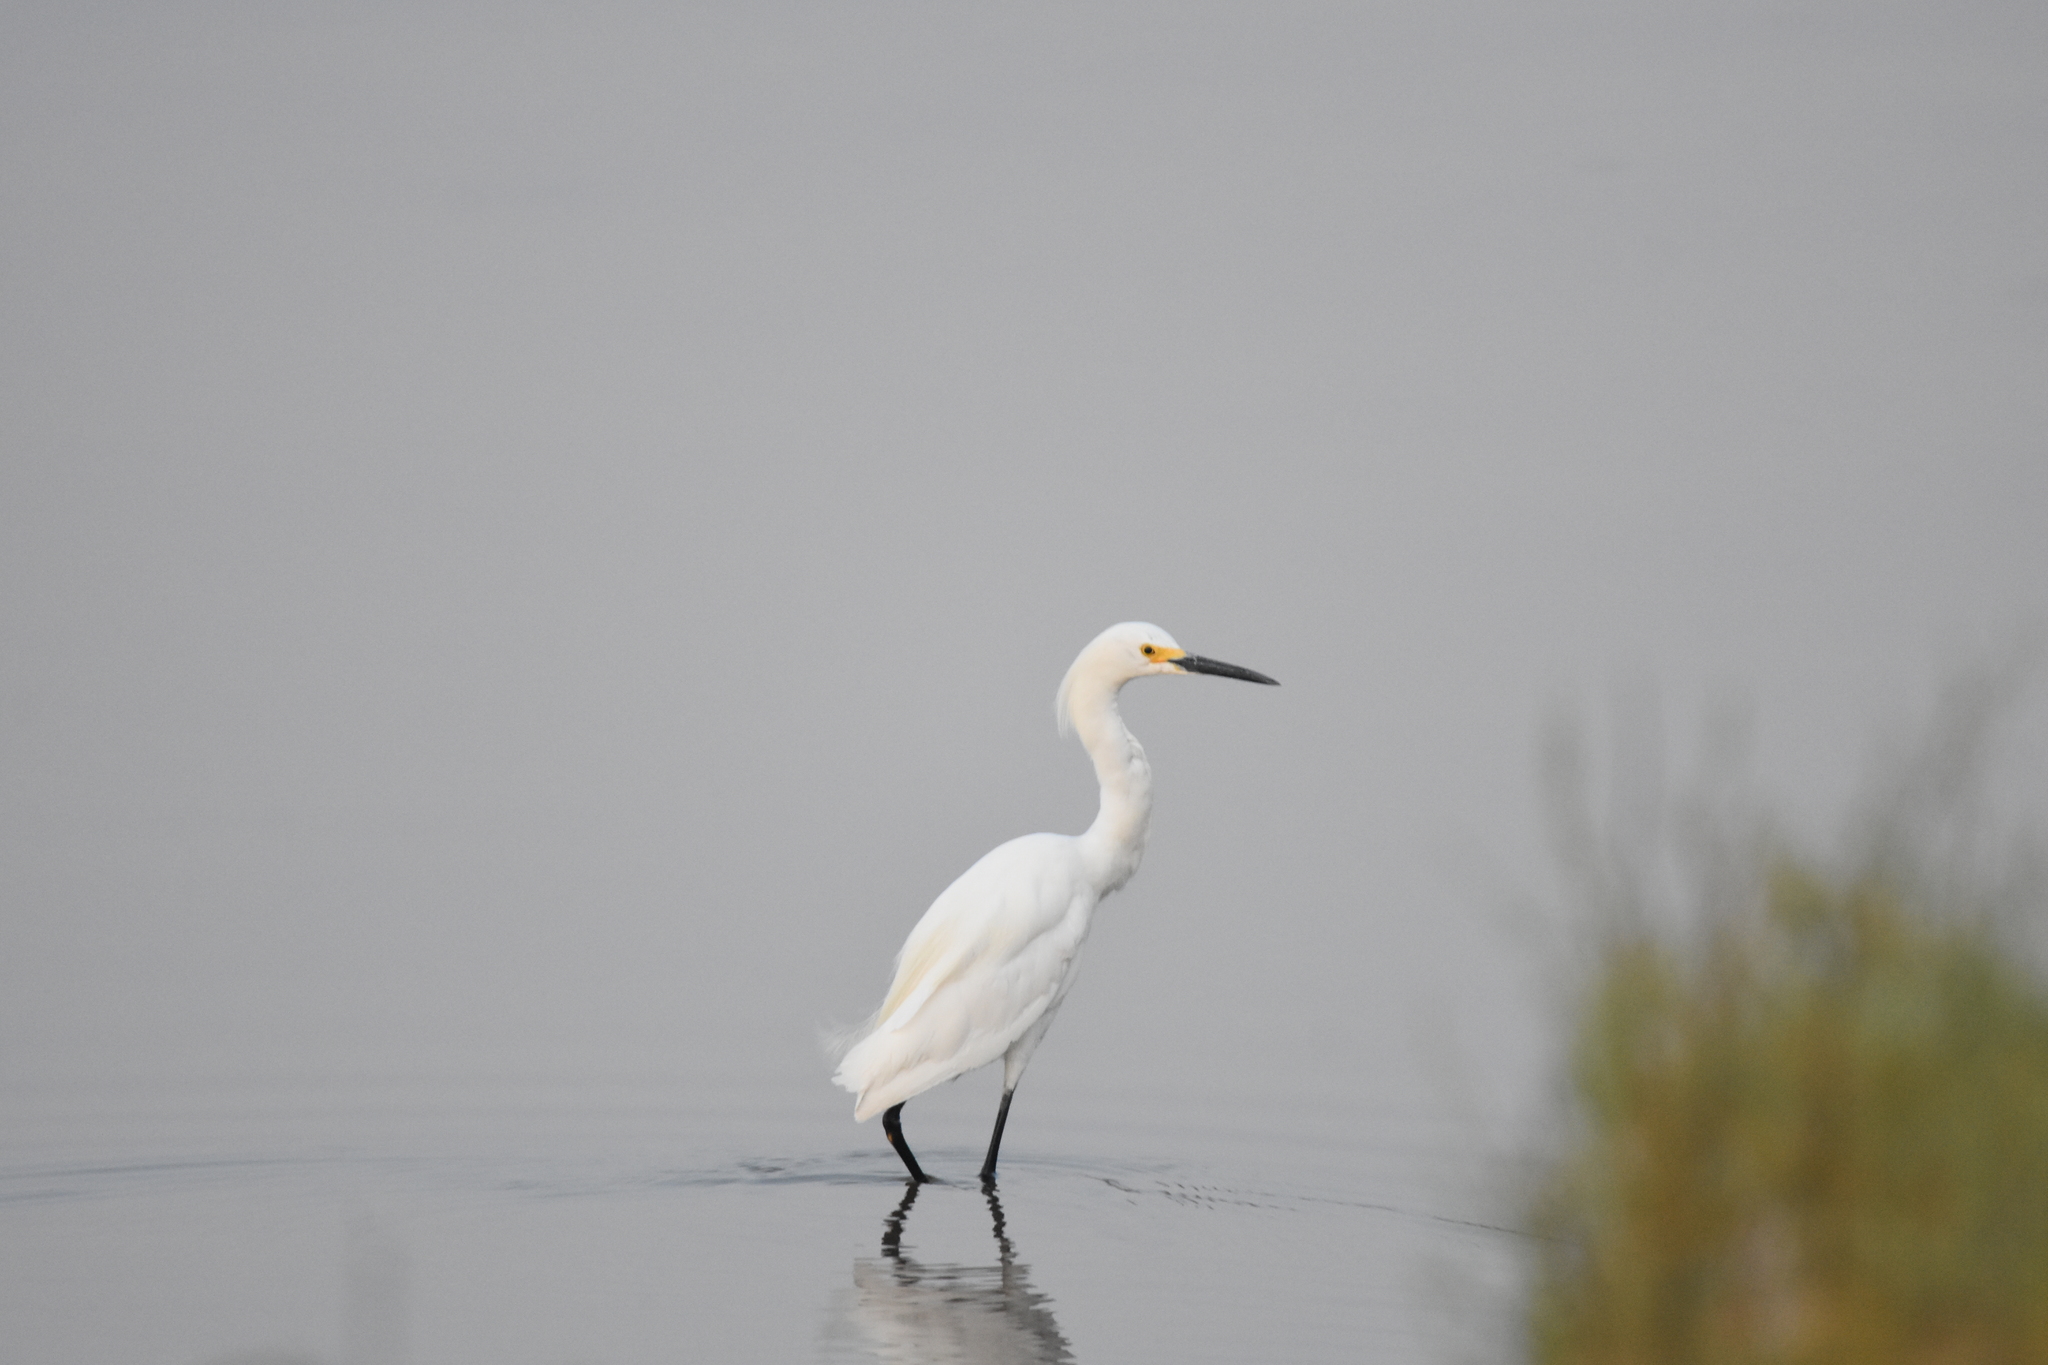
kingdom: Animalia
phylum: Chordata
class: Aves
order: Pelecaniformes
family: Ardeidae
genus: Egretta
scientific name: Egretta thula
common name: Snowy egret
